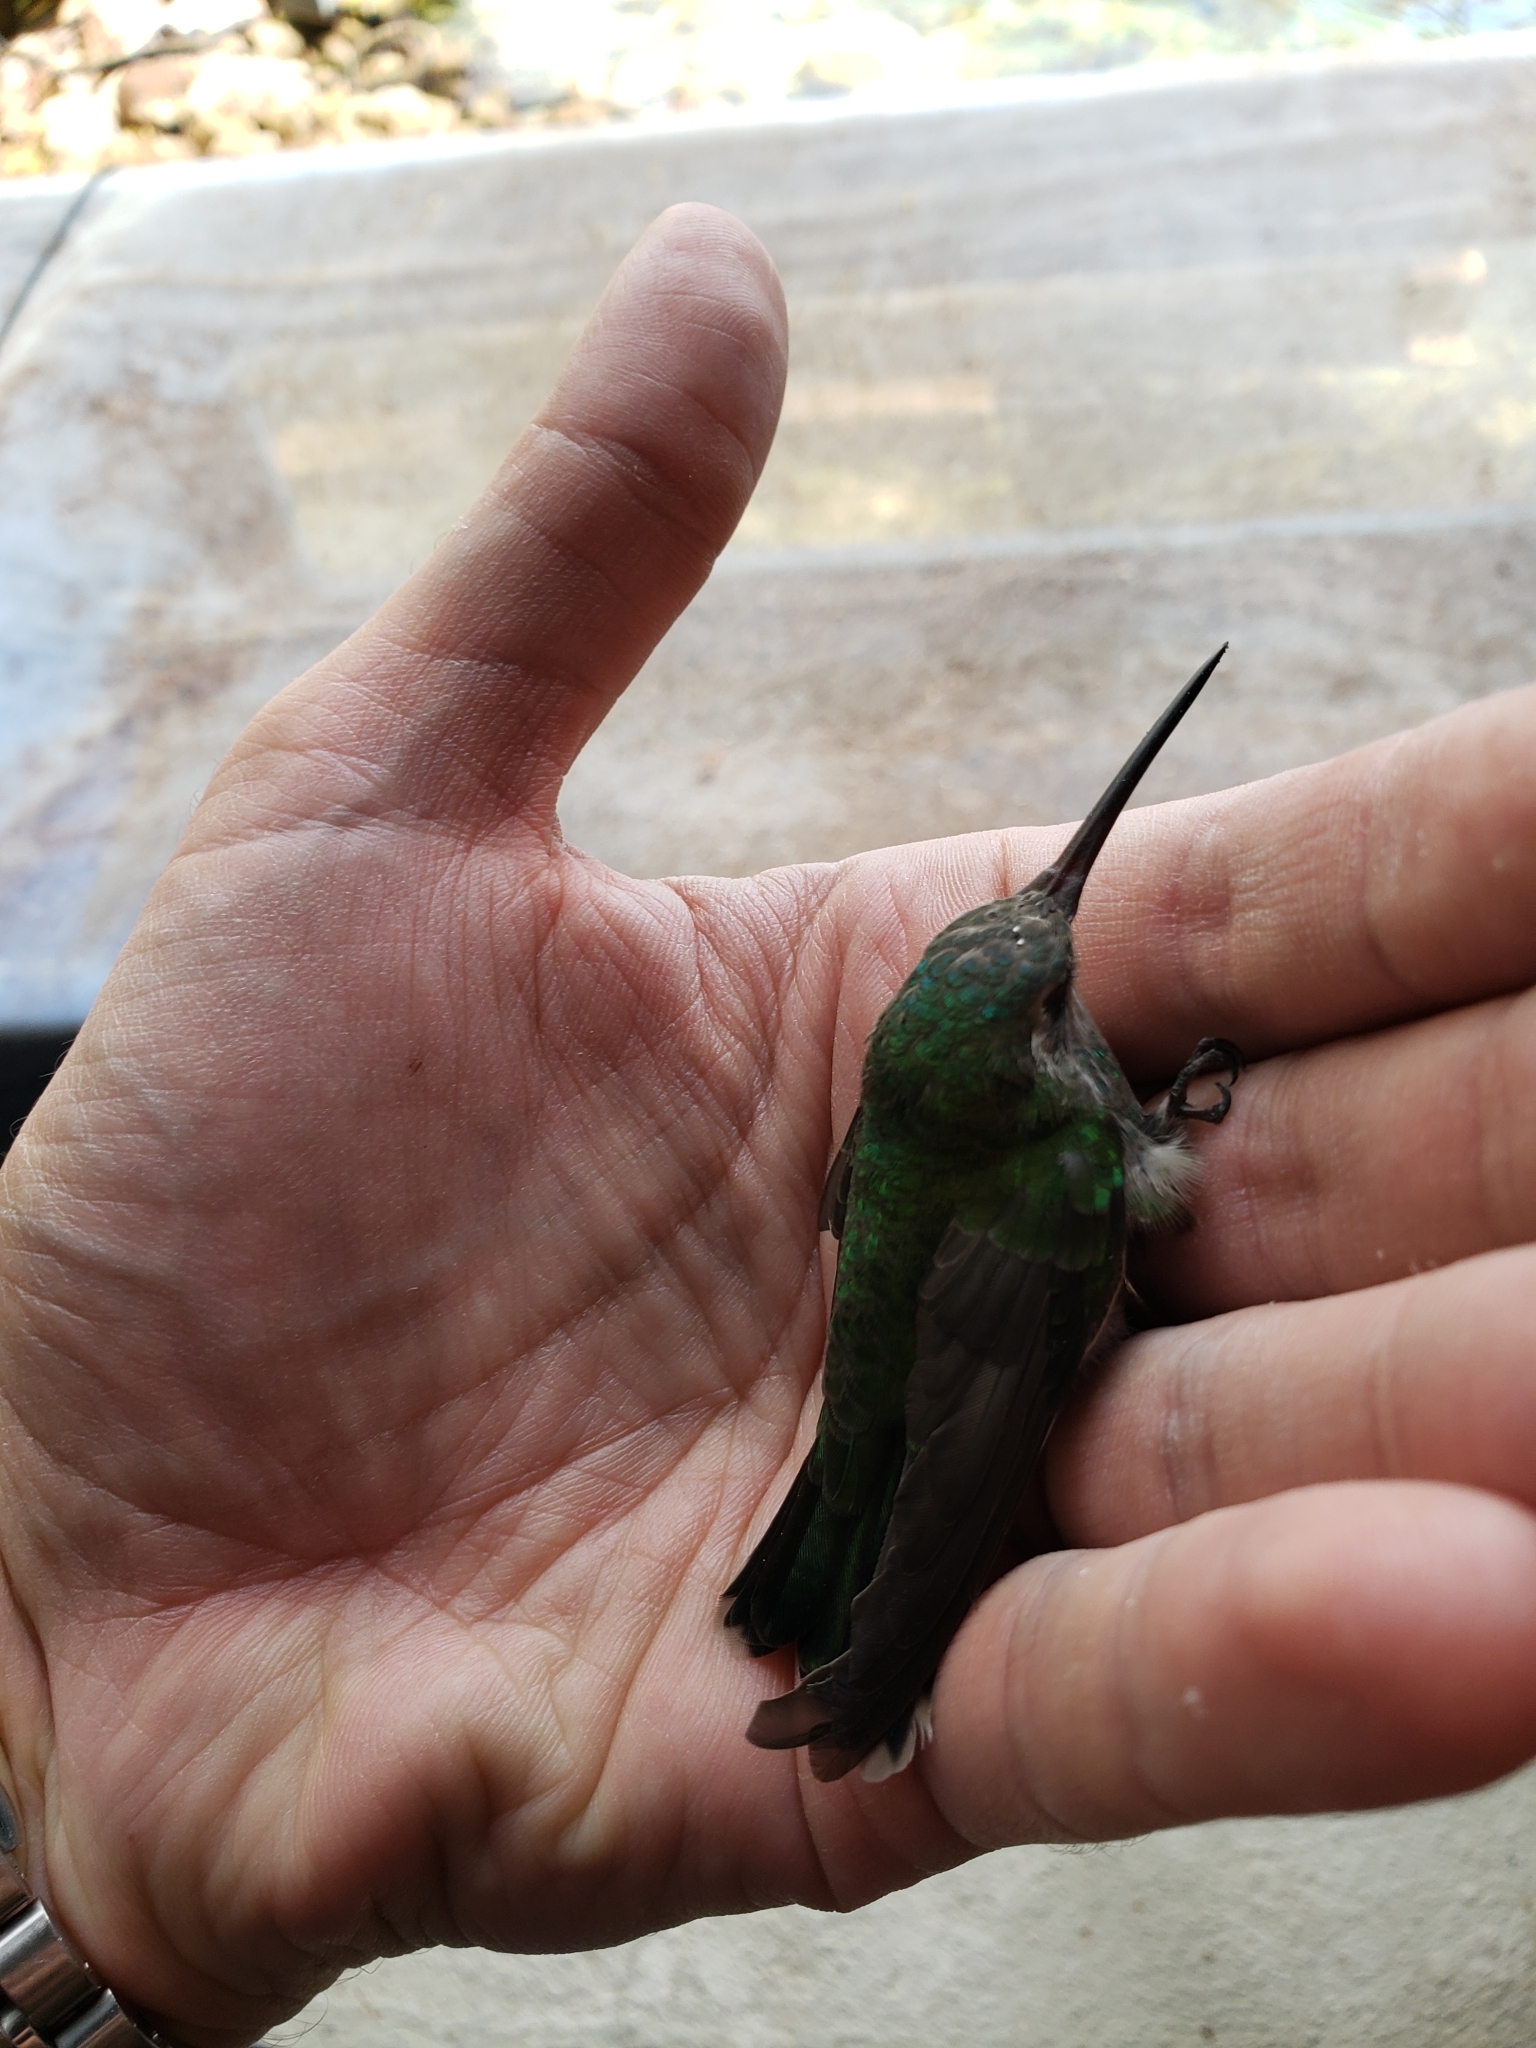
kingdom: Animalia
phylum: Chordata
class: Aves
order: Apodiformes
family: Trochilidae
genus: Cynanthus
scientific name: Cynanthus latirostris
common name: Broad-billed hummingbird
